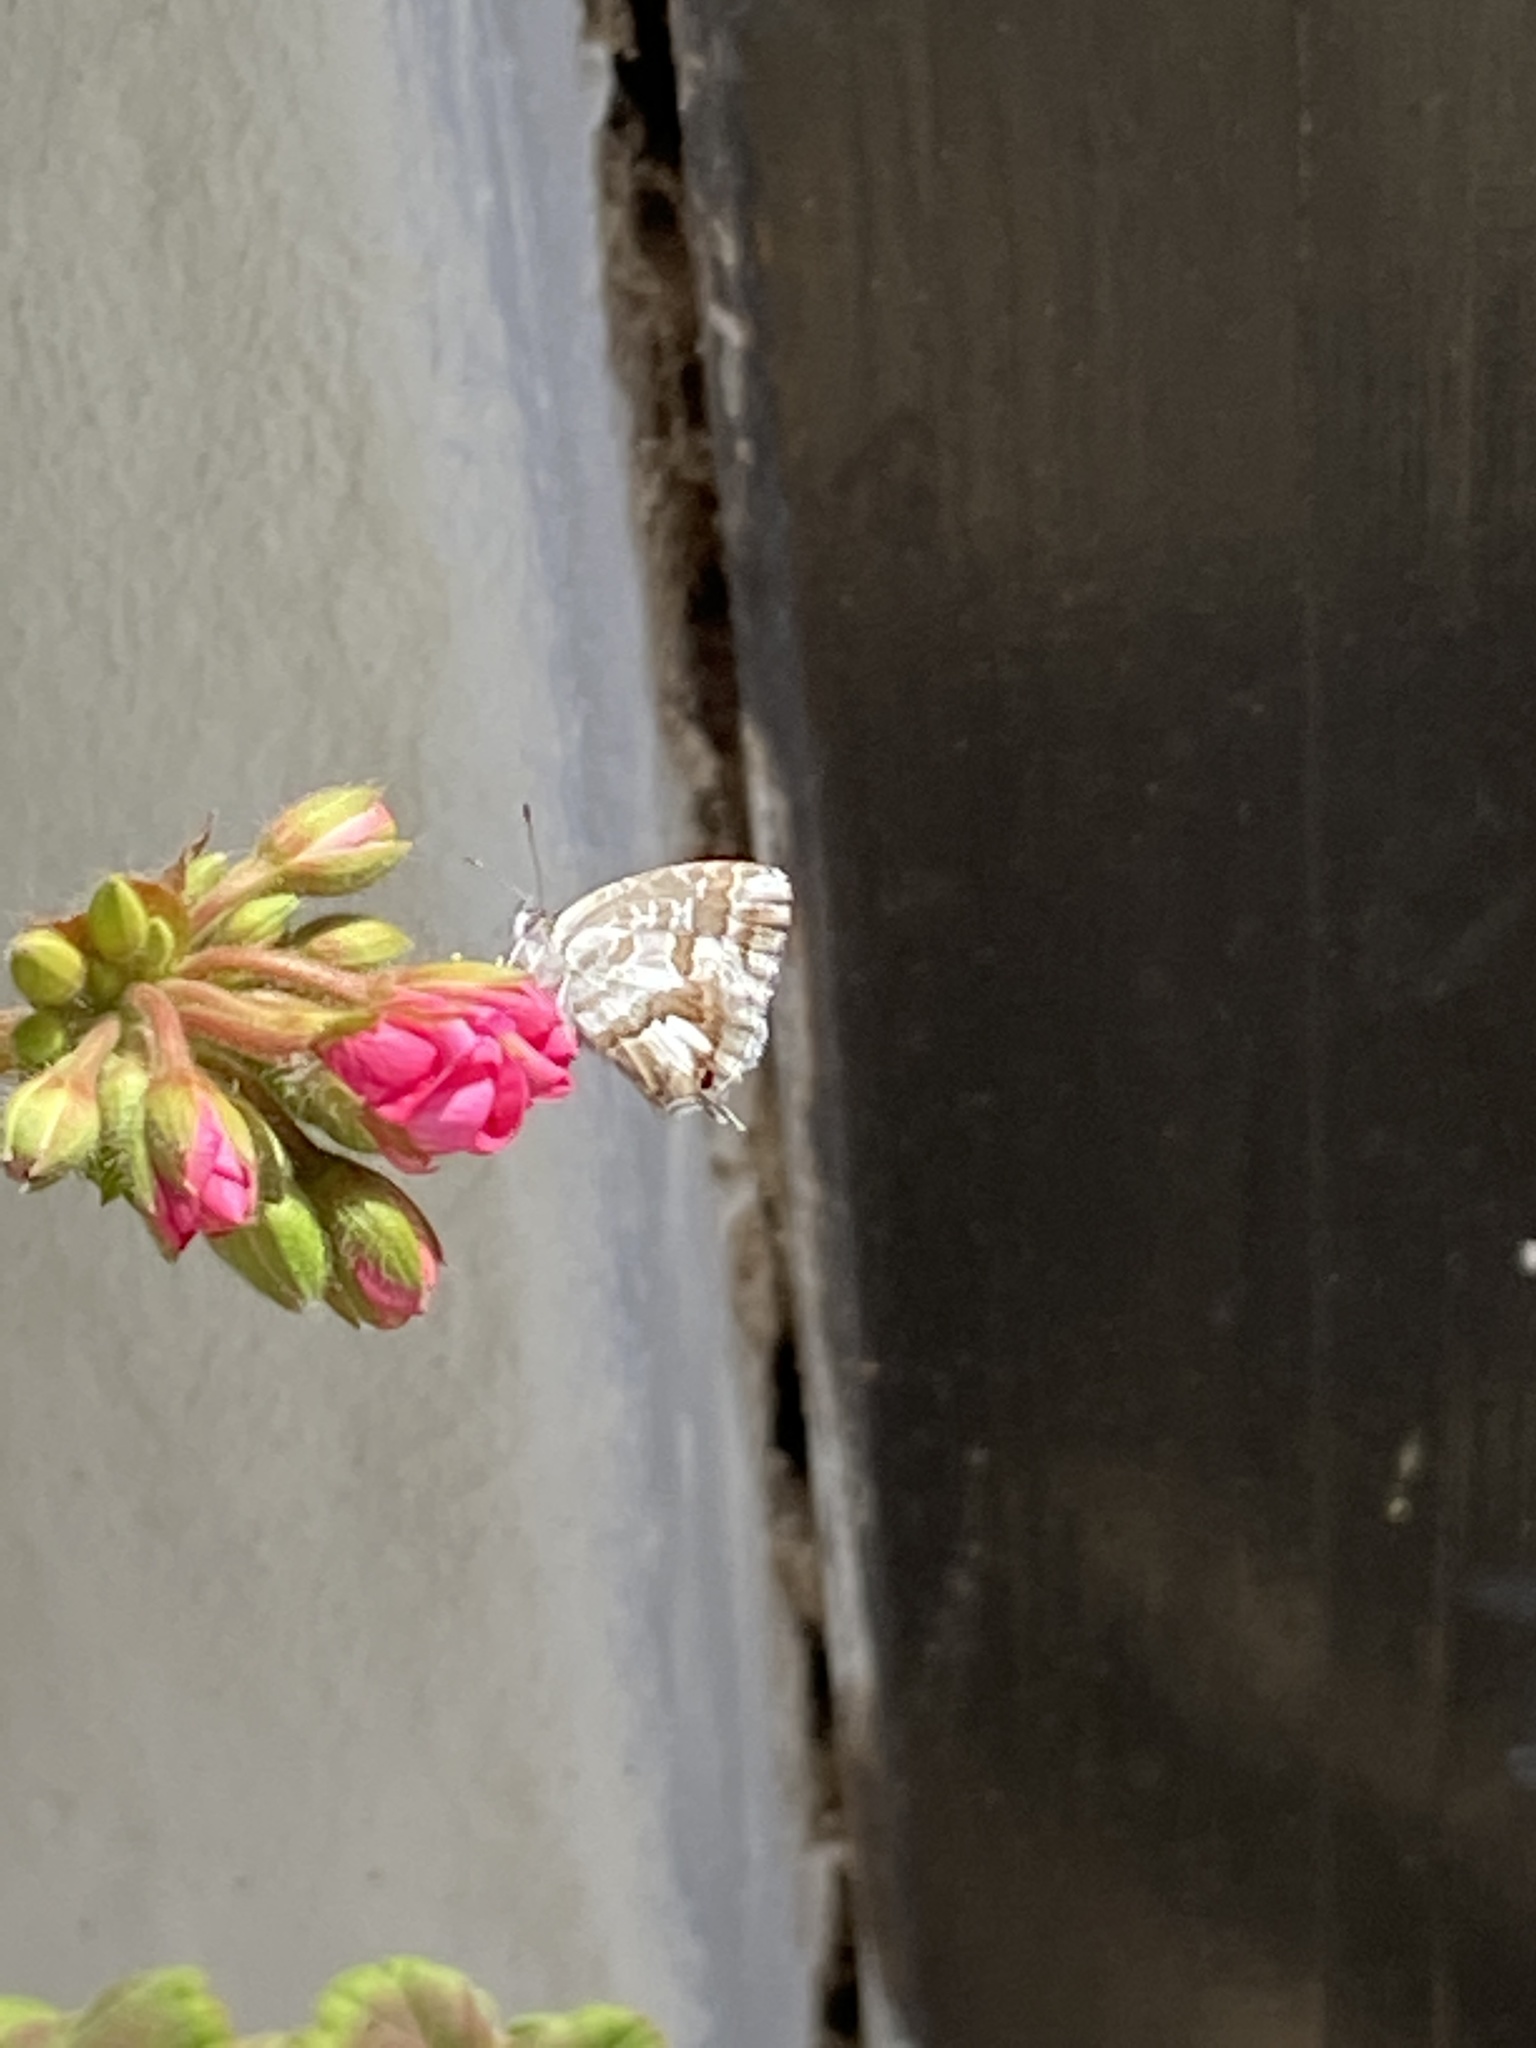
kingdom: Animalia
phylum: Arthropoda
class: Insecta
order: Lepidoptera
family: Lycaenidae
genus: Cacyreus
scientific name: Cacyreus marshalli
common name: Geranium bronze
